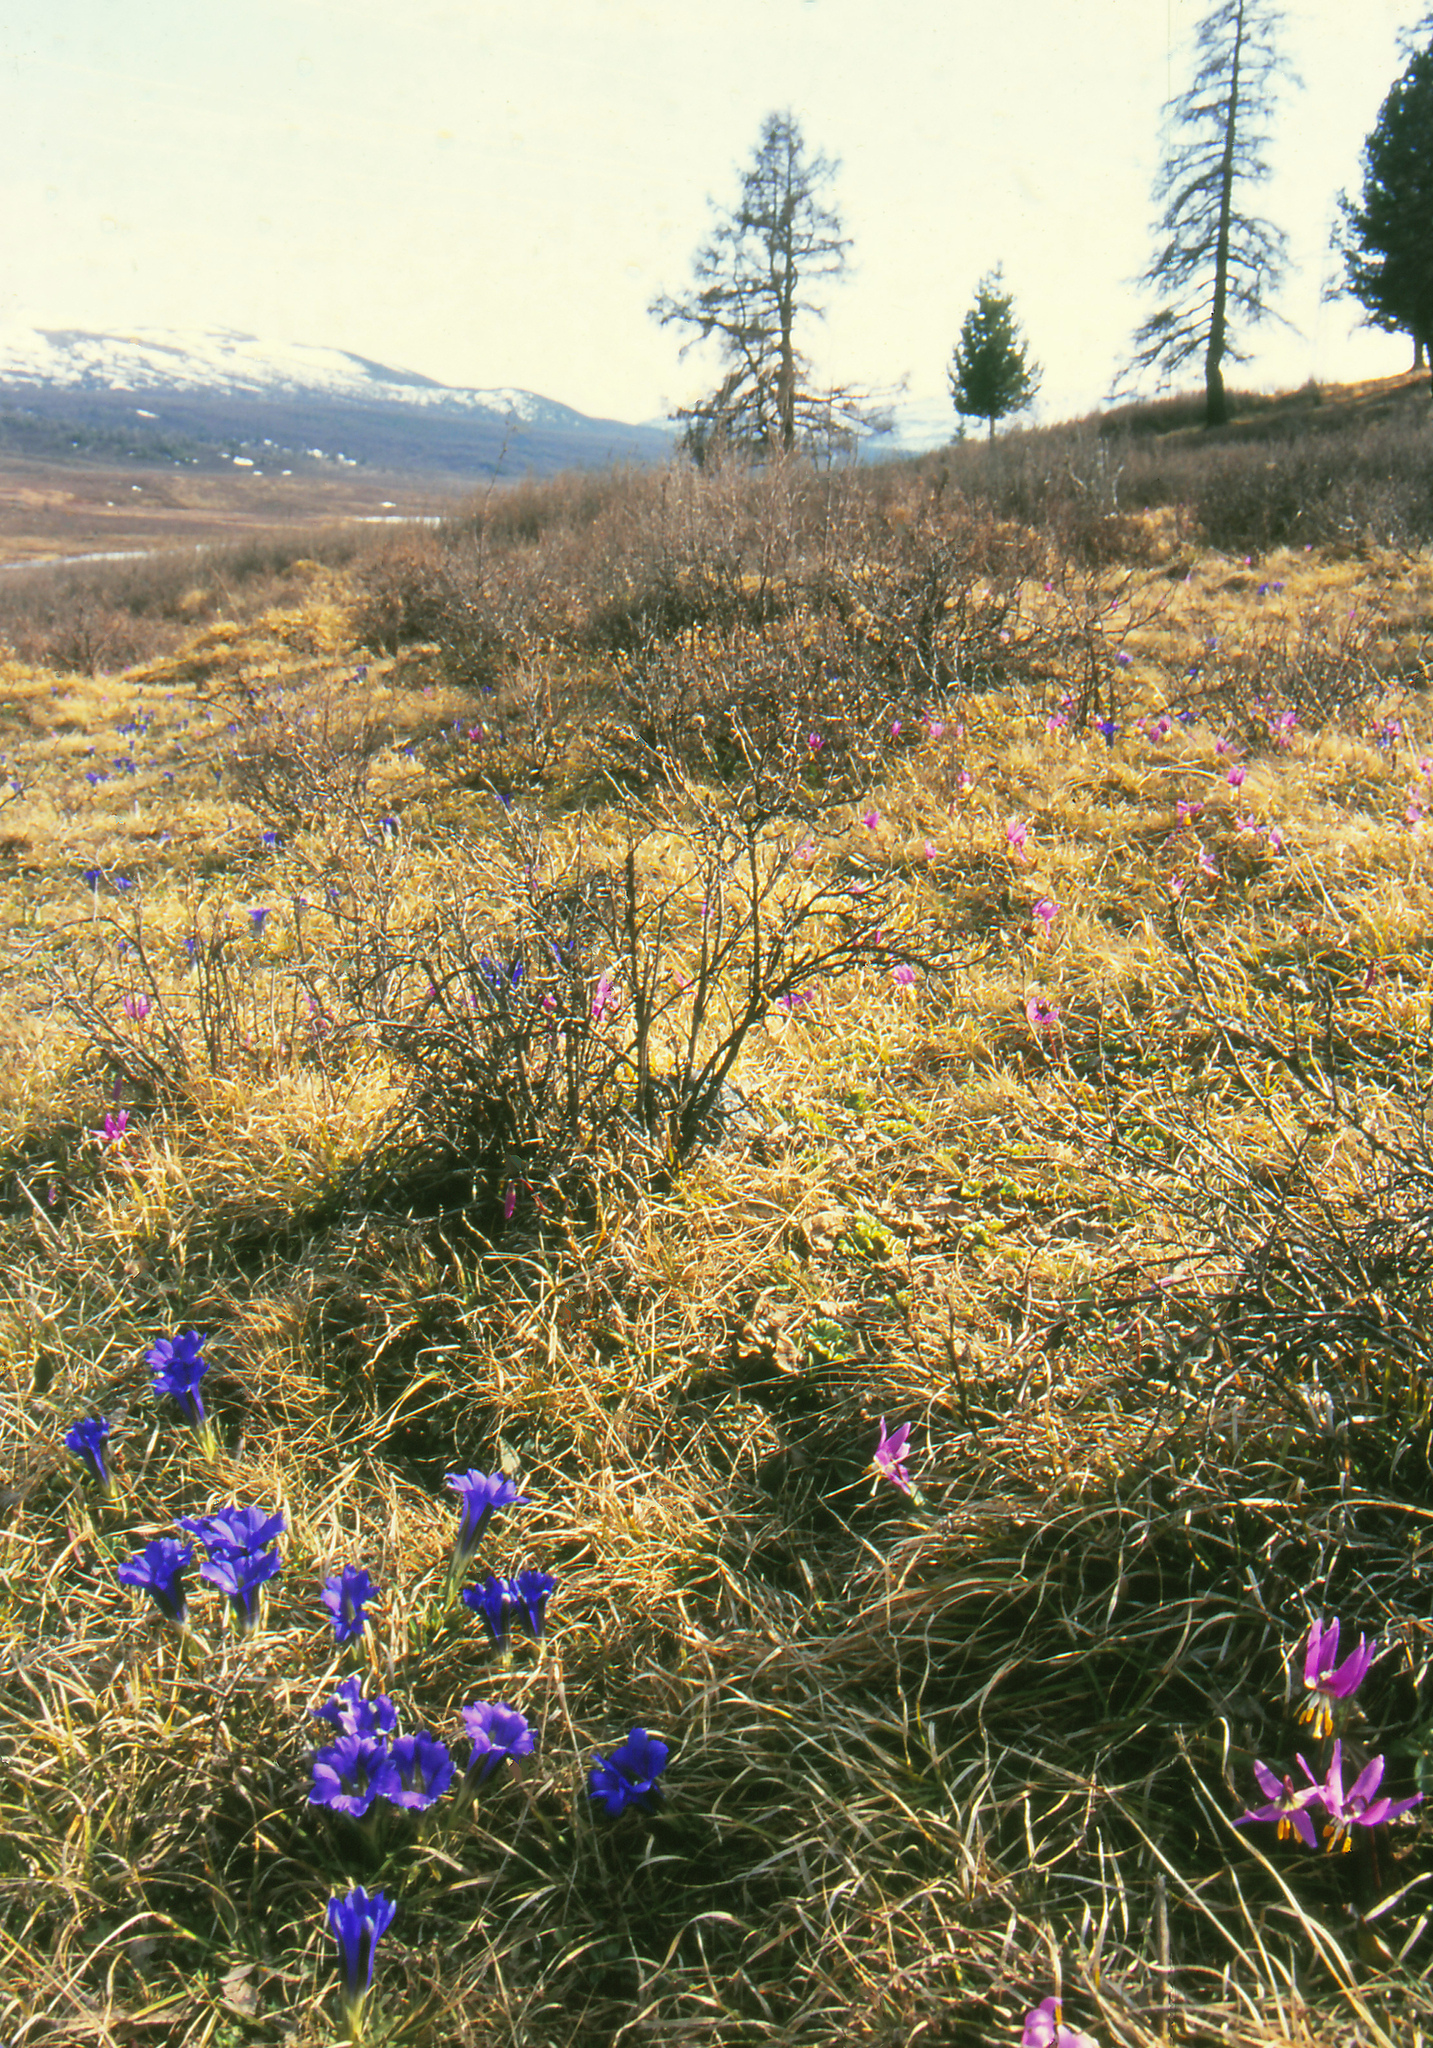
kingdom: Plantae
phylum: Tracheophyta
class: Pinopsida
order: Pinales
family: Pinaceae
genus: Pinus
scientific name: Pinus sibirica
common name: Siberian pine
